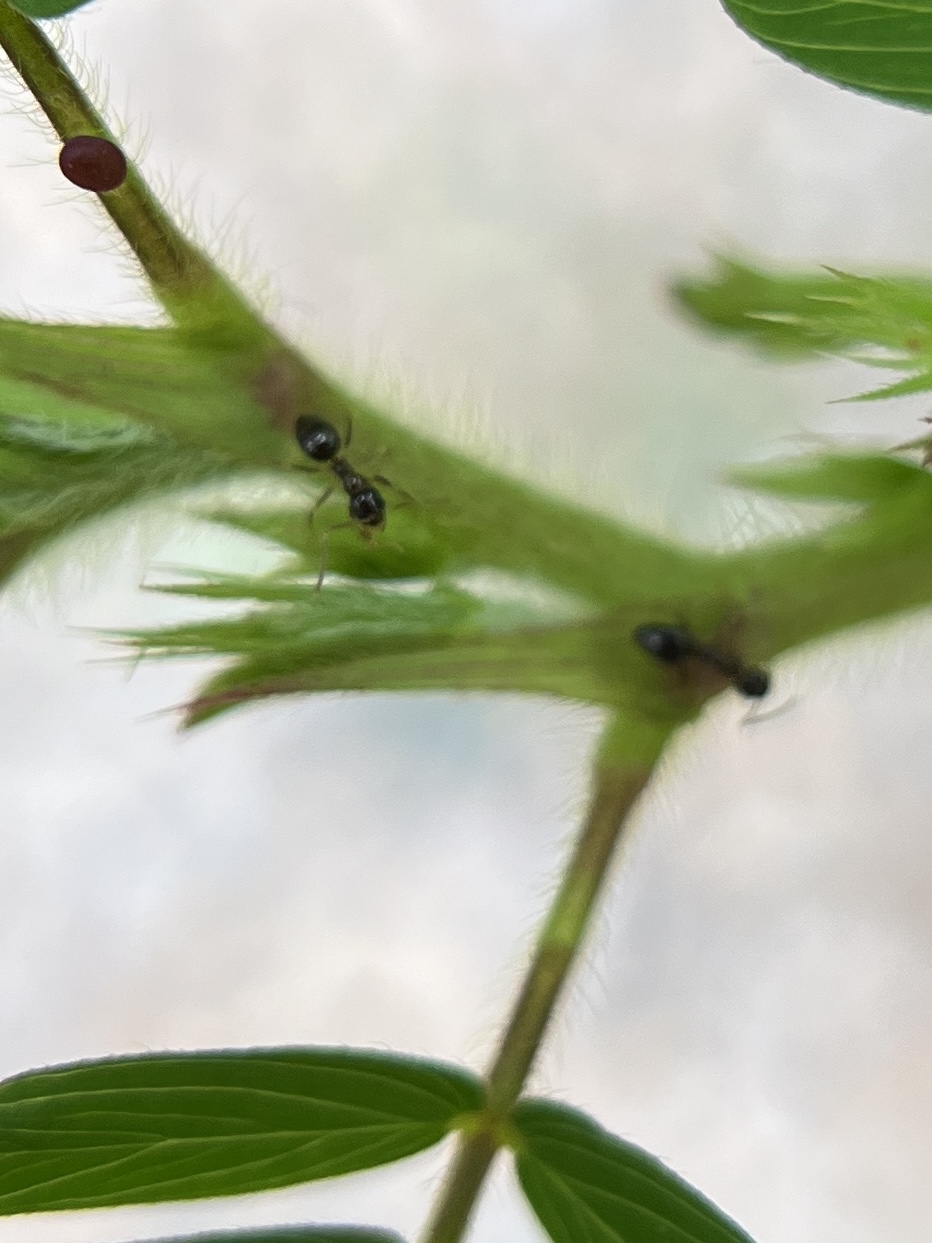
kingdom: Animalia
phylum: Arthropoda
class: Insecta
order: Hymenoptera
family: Formicidae
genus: Nylanderia
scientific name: Nylanderia
